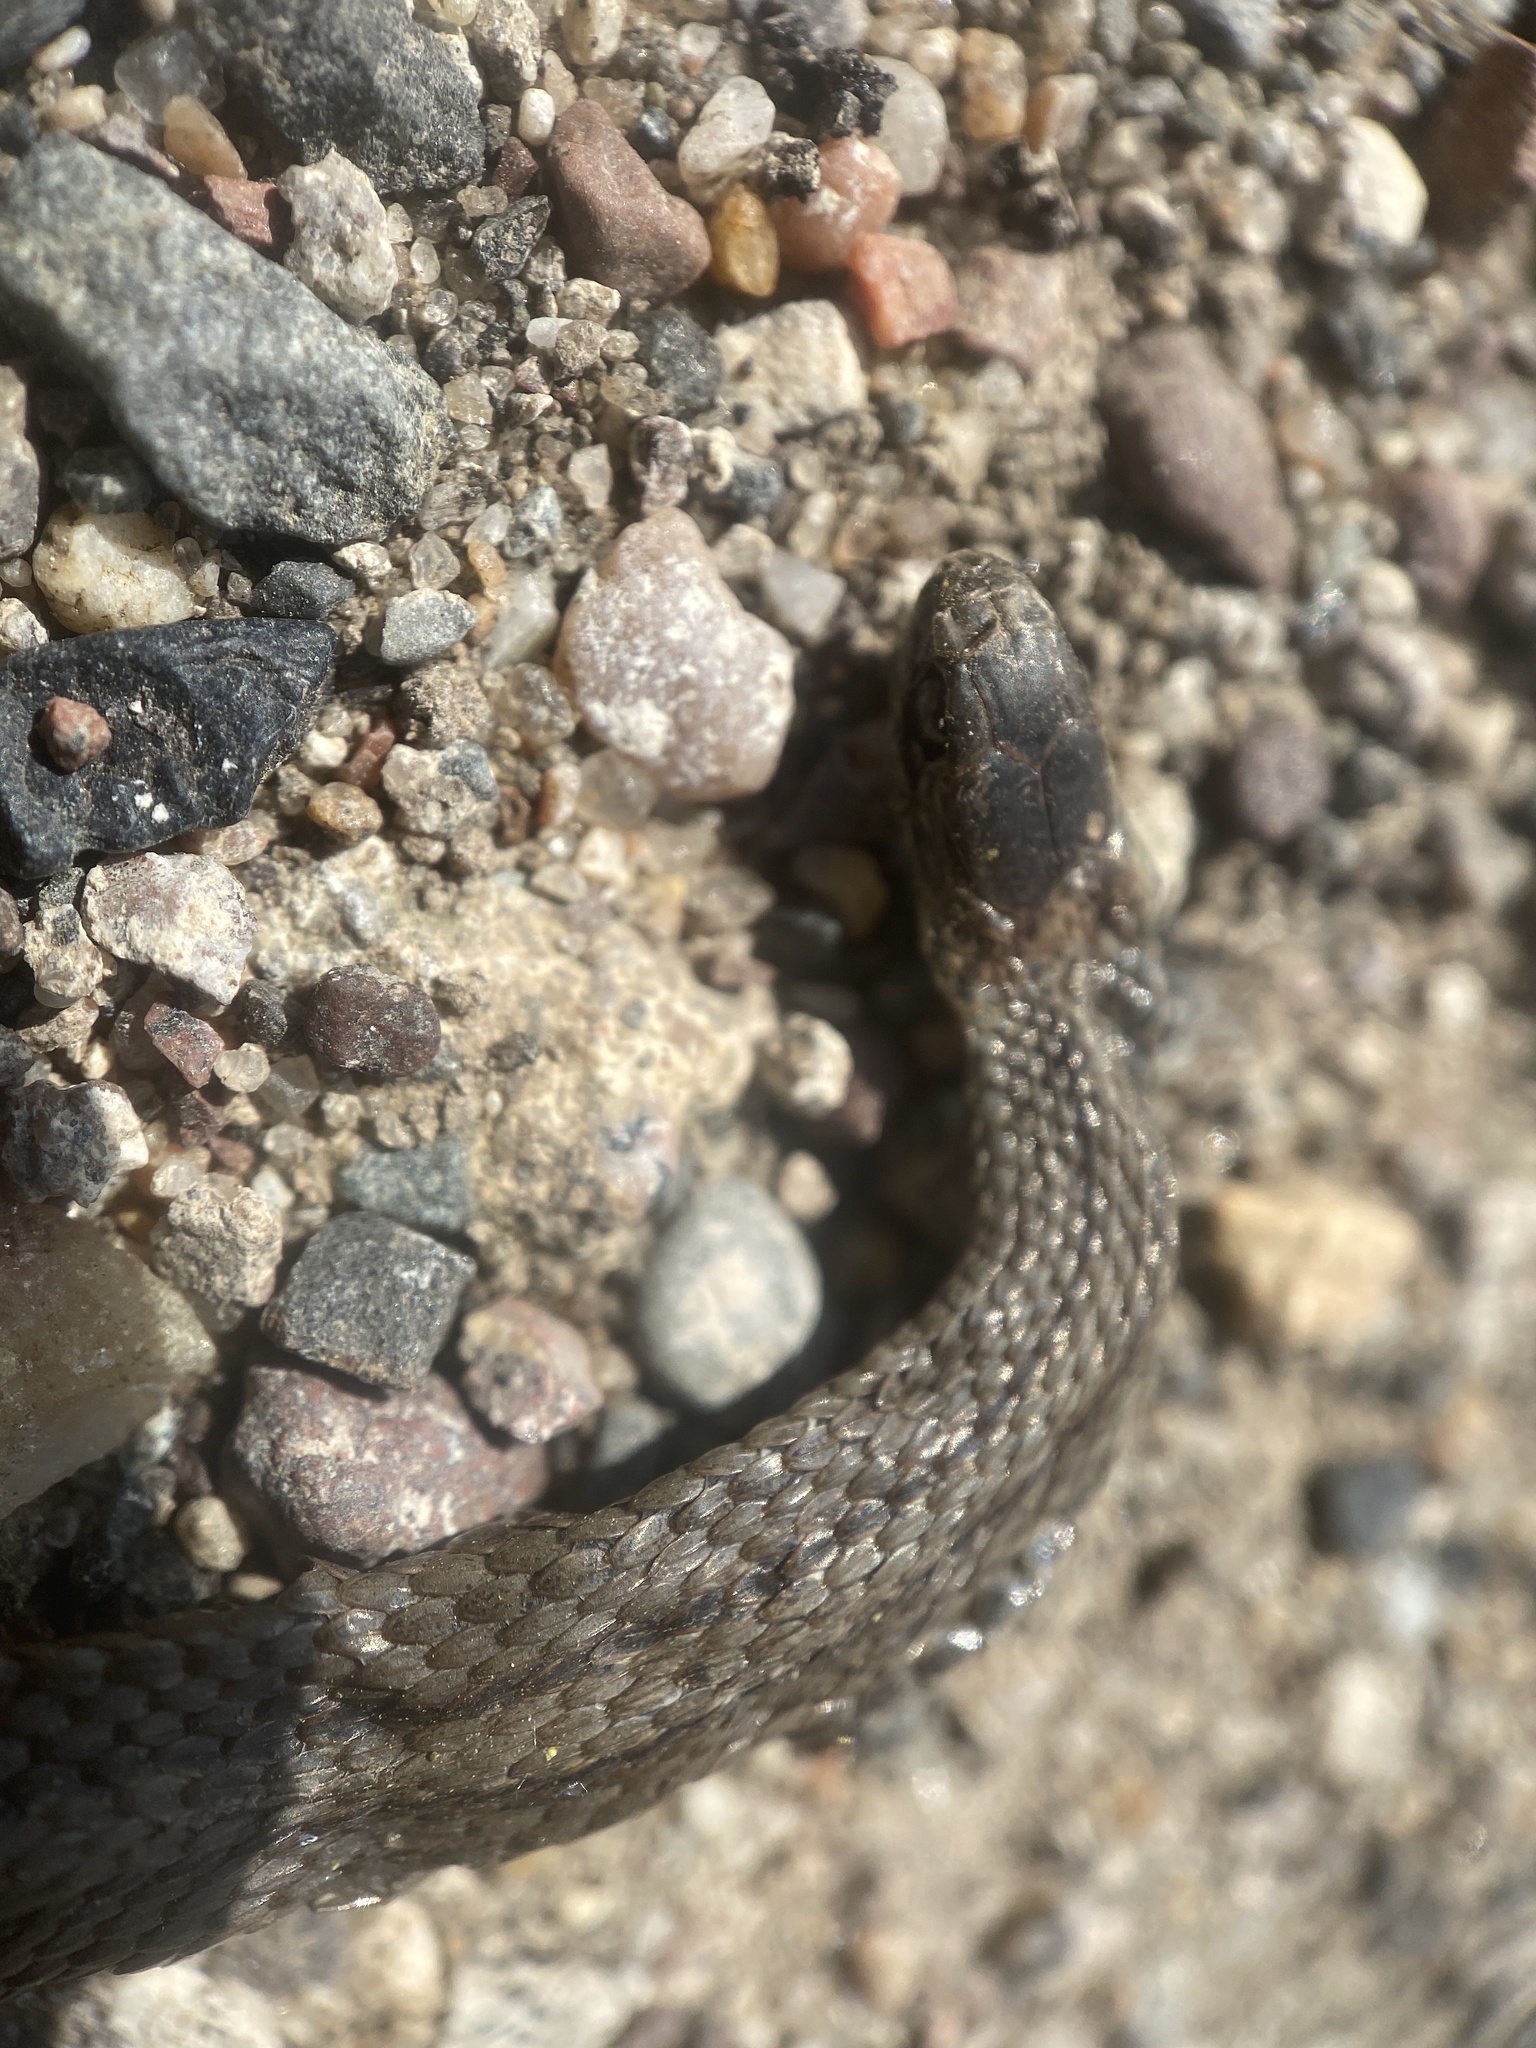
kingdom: Animalia
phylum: Chordata
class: Squamata
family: Colubridae
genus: Storeria
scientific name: Storeria occipitomaculata
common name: Redbelly snake
